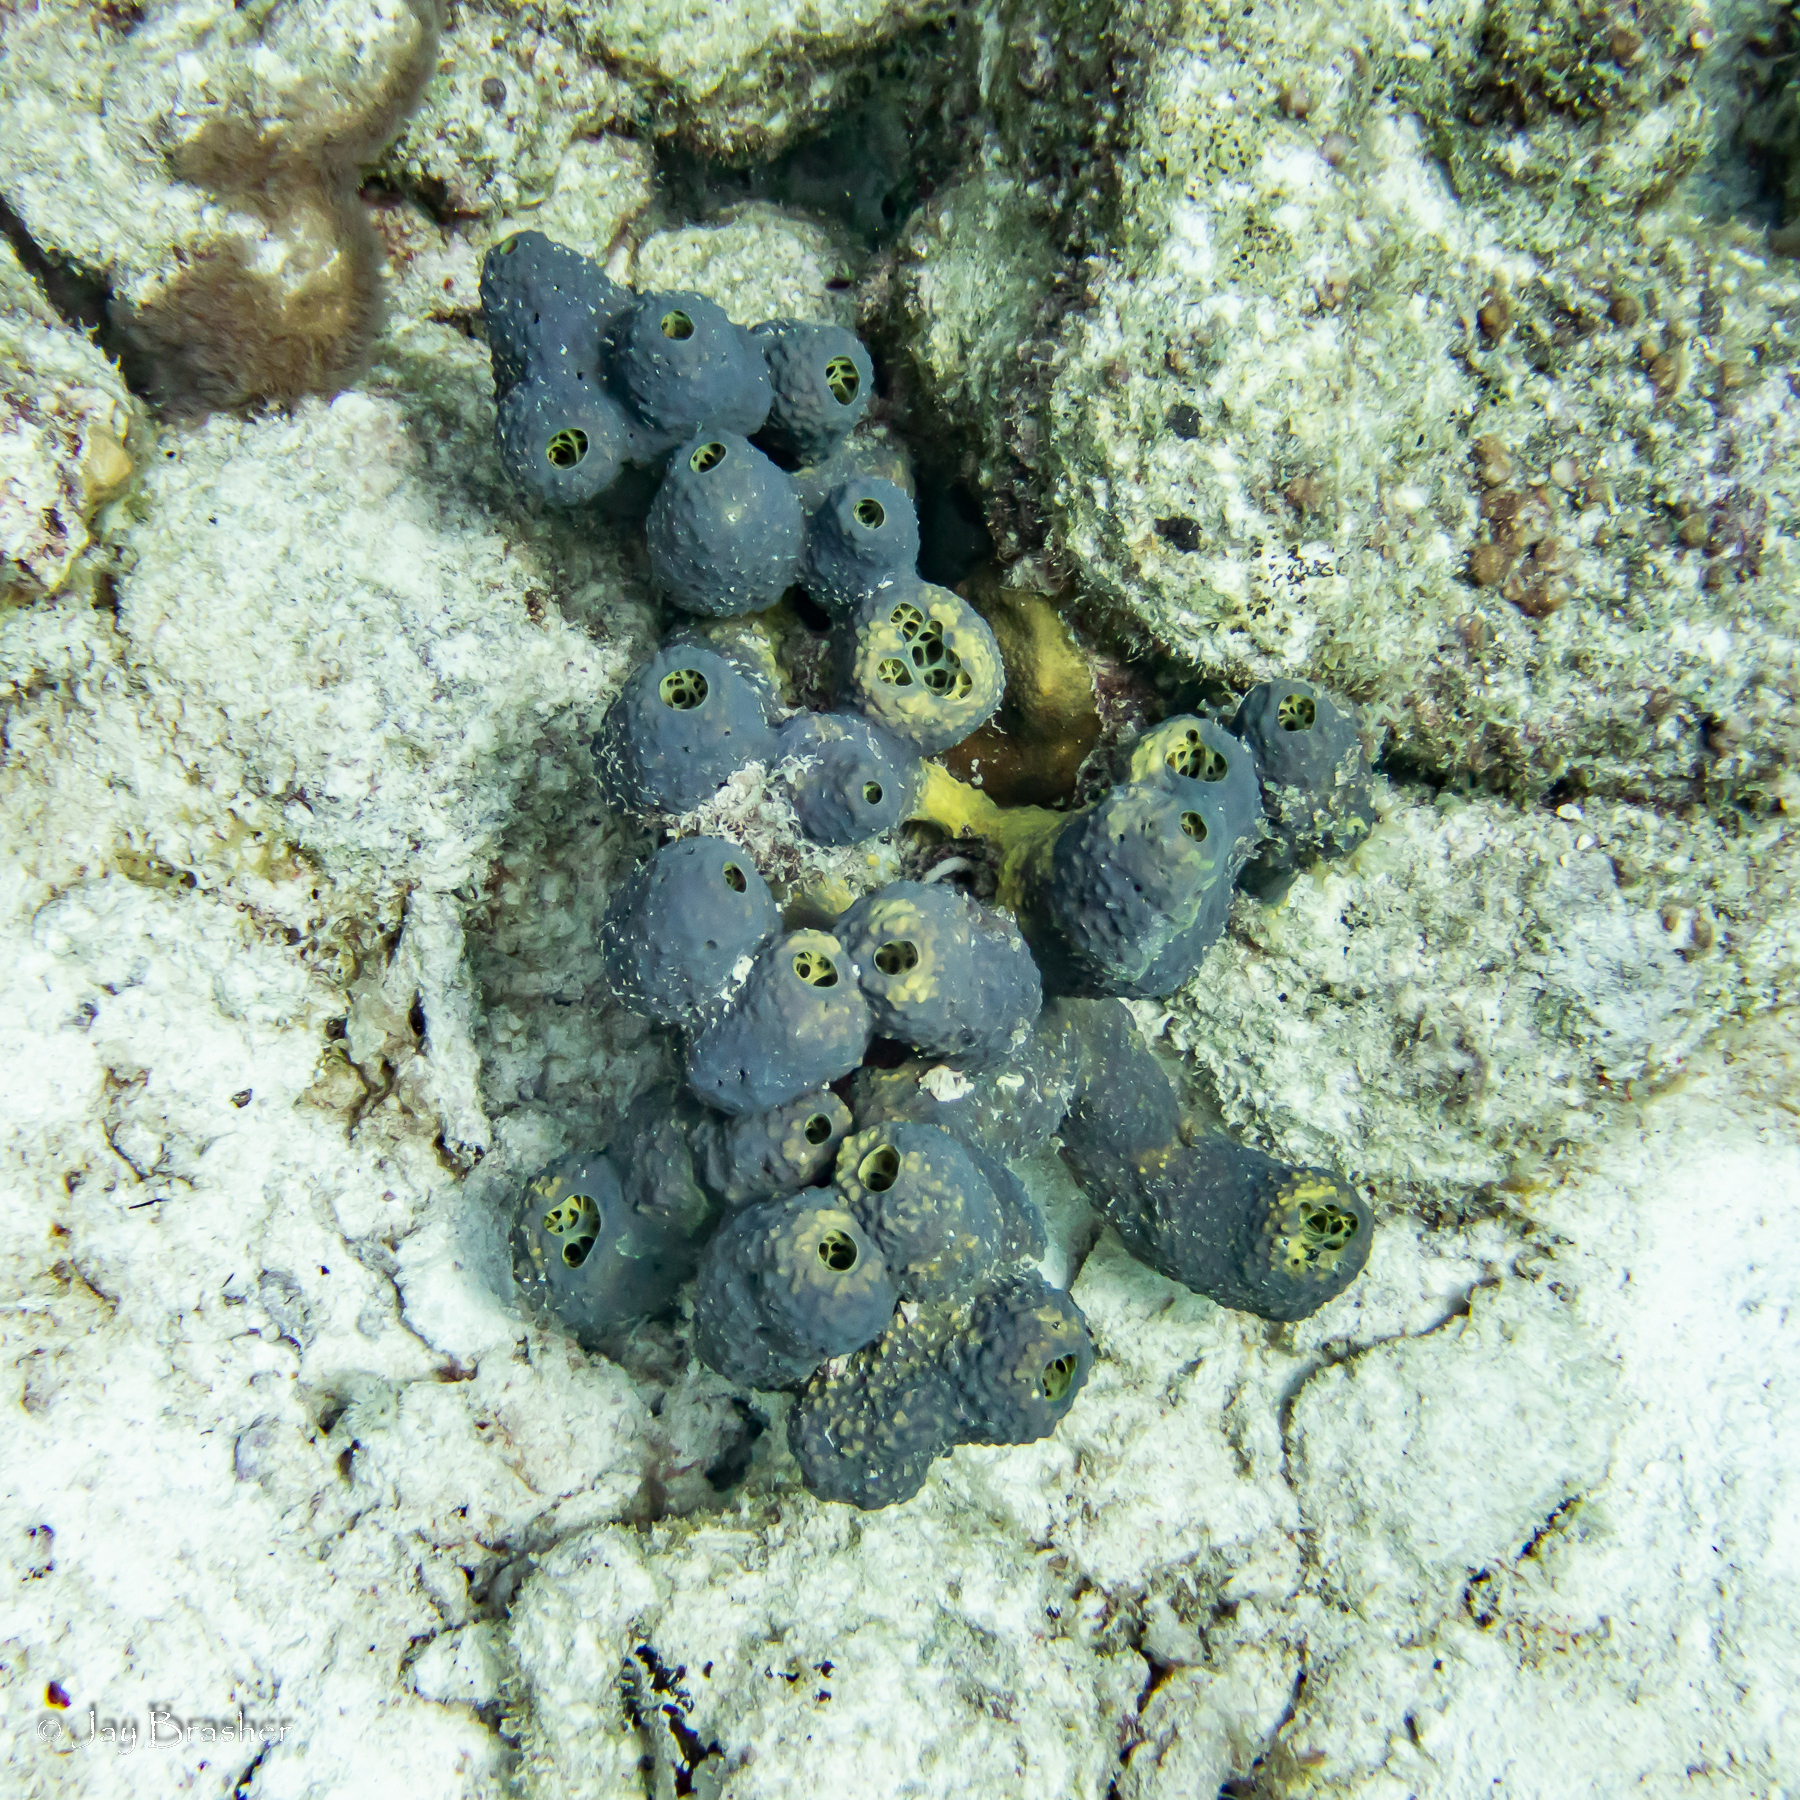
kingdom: Animalia
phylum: Porifera
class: Demospongiae
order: Verongiida
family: Aplysinidae
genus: Aiolochroia
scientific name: Aiolochroia crassa
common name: Branching tube sponge
